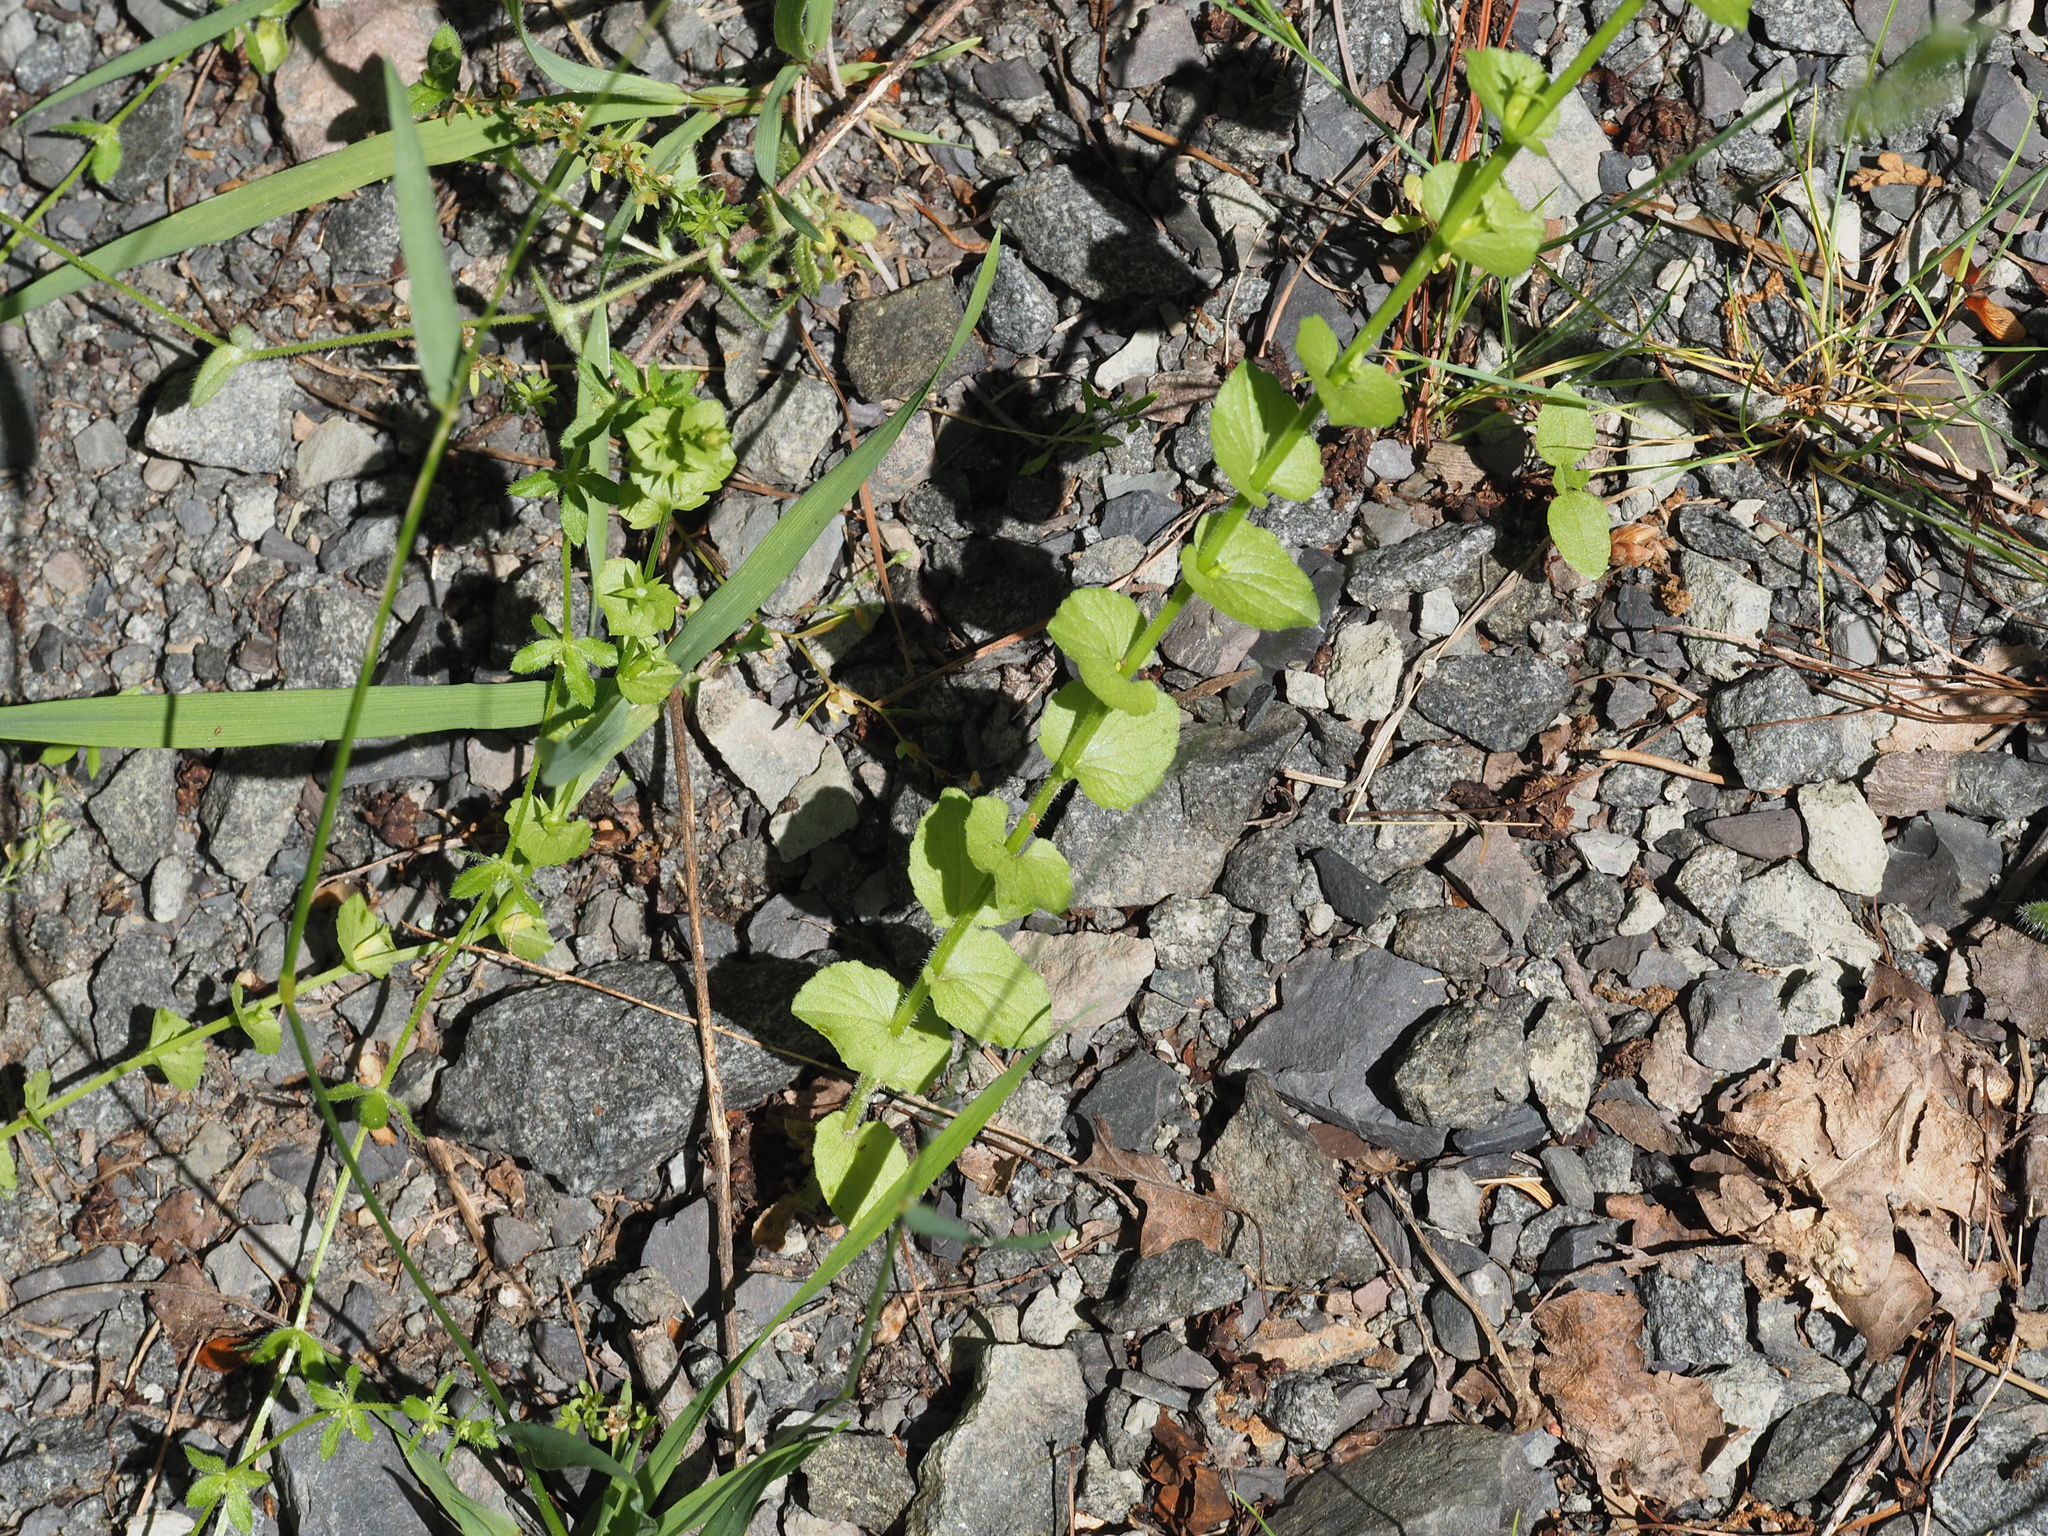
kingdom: Plantae
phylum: Tracheophyta
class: Magnoliopsida
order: Asterales
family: Campanulaceae
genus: Triodanis
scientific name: Triodanis perfoliata
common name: Clasping venus' looking-glass
